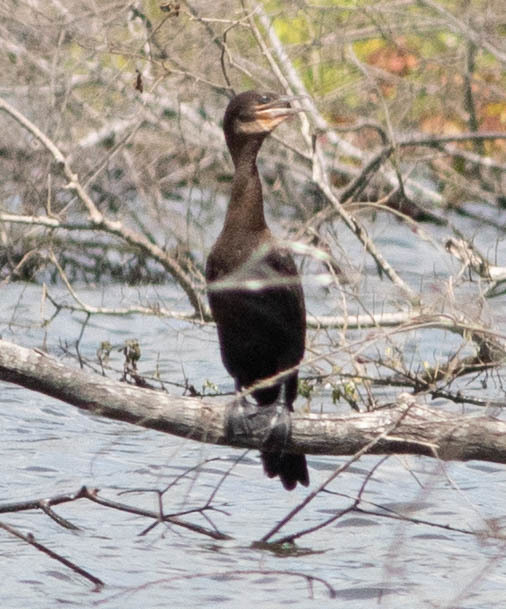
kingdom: Animalia
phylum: Chordata
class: Aves
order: Suliformes
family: Phalacrocoracidae
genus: Phalacrocorax
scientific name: Phalacrocorax brasilianus
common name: Neotropic cormorant
